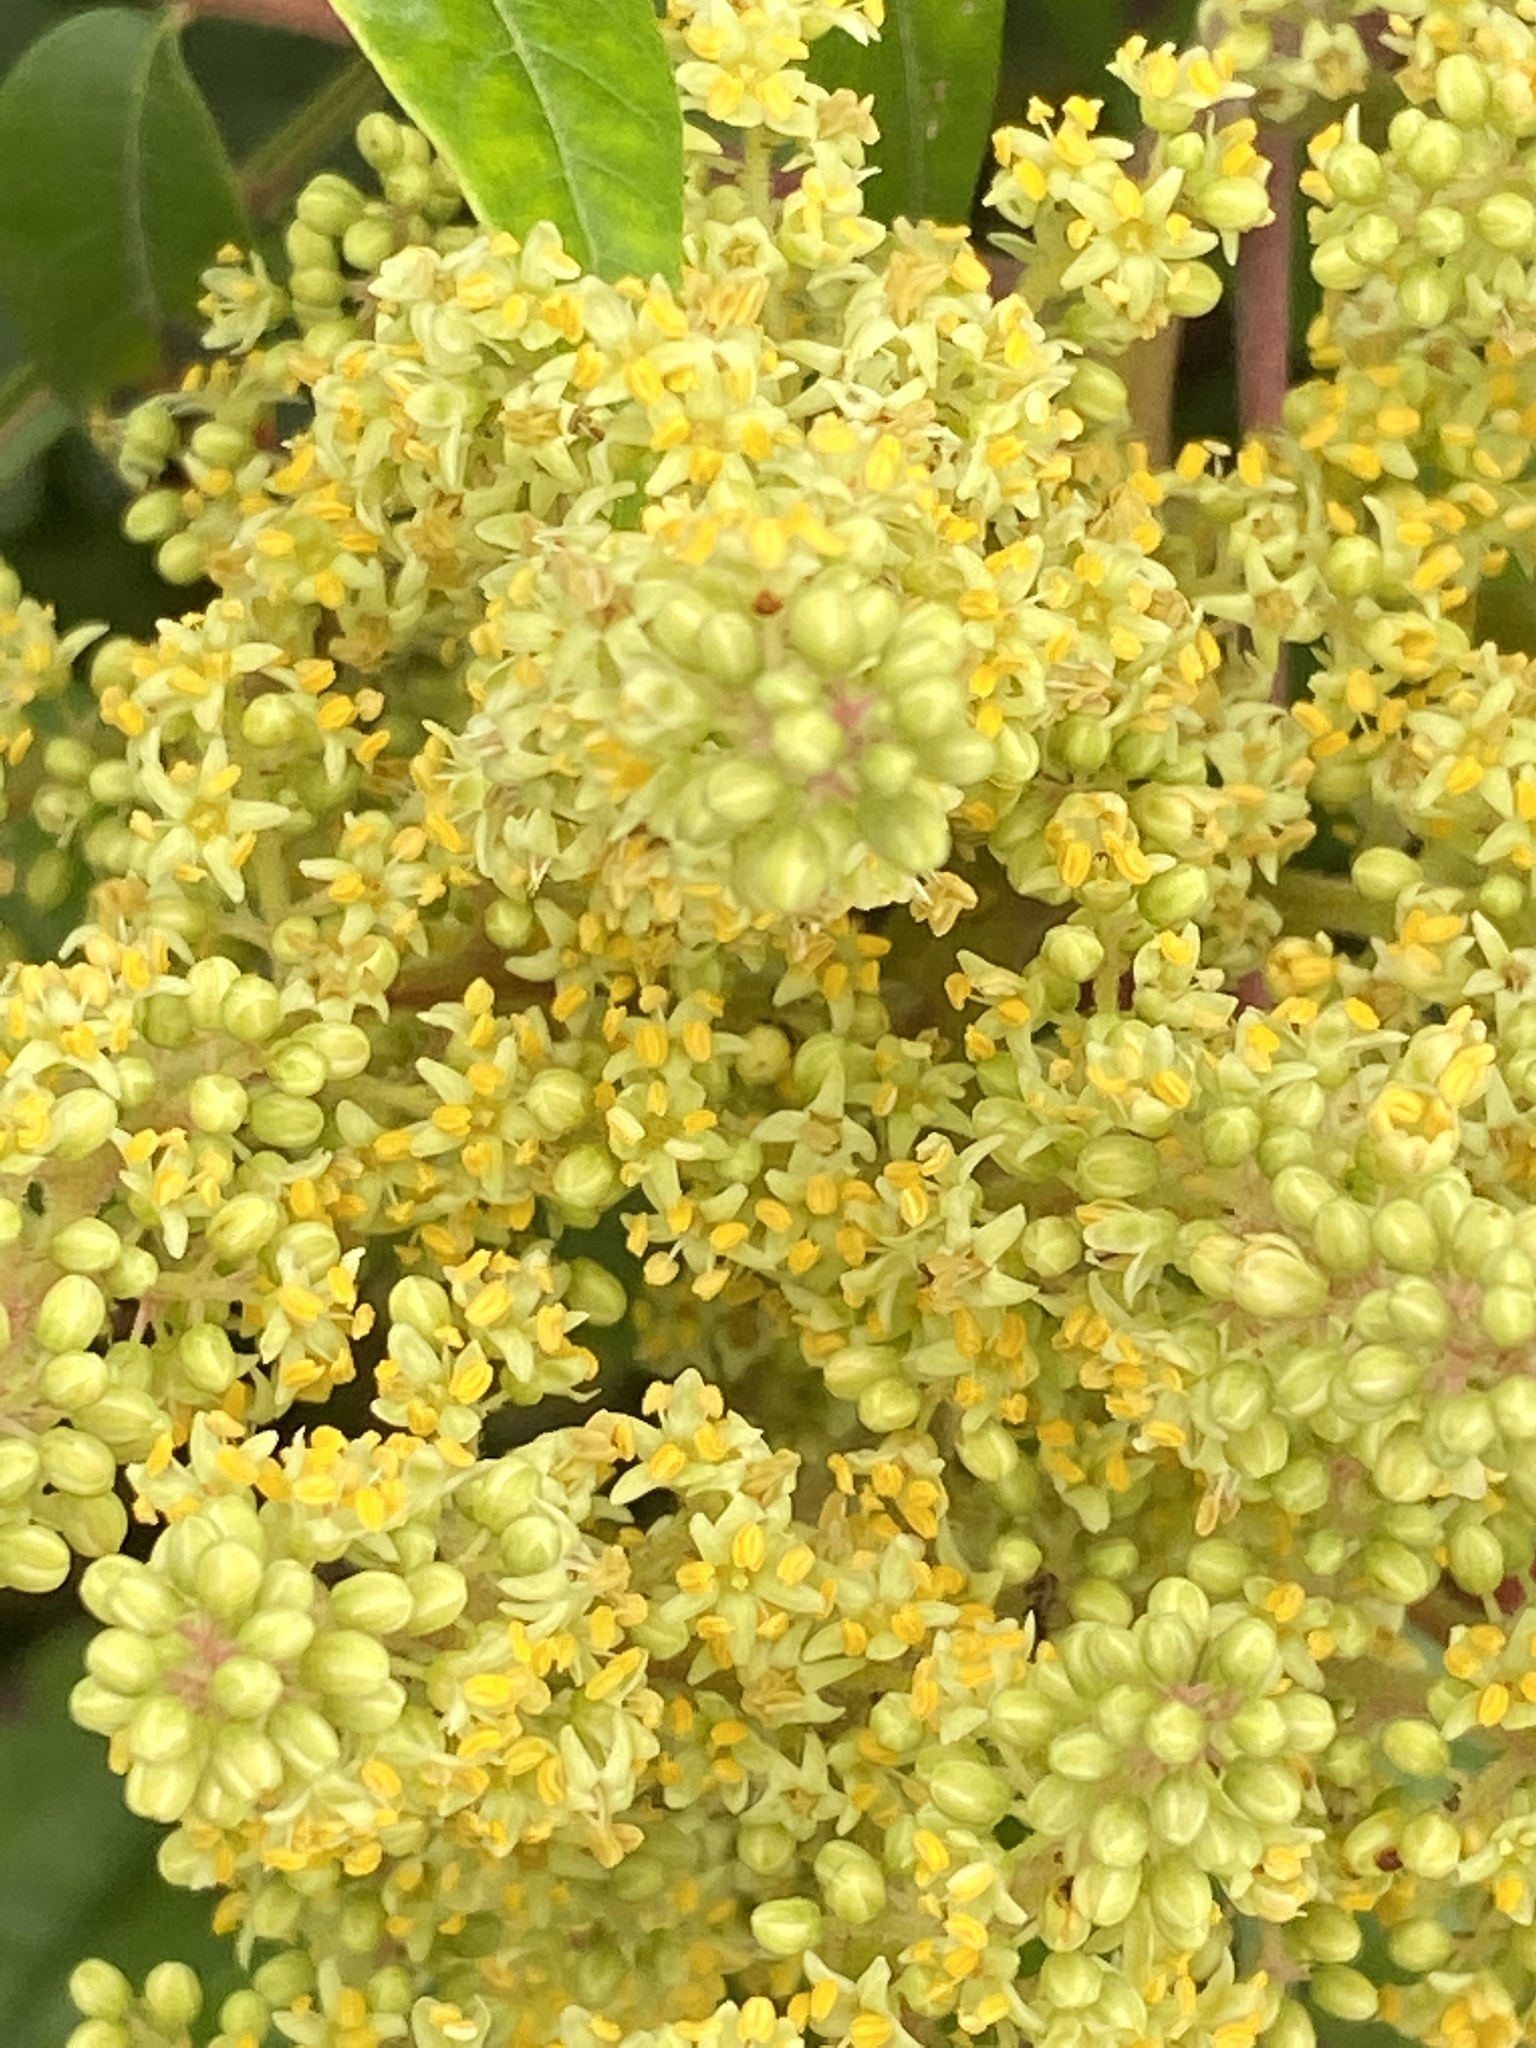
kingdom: Plantae
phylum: Tracheophyta
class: Magnoliopsida
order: Sapindales
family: Anacardiaceae
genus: Rhus
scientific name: Rhus copallina
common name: Shining sumac
